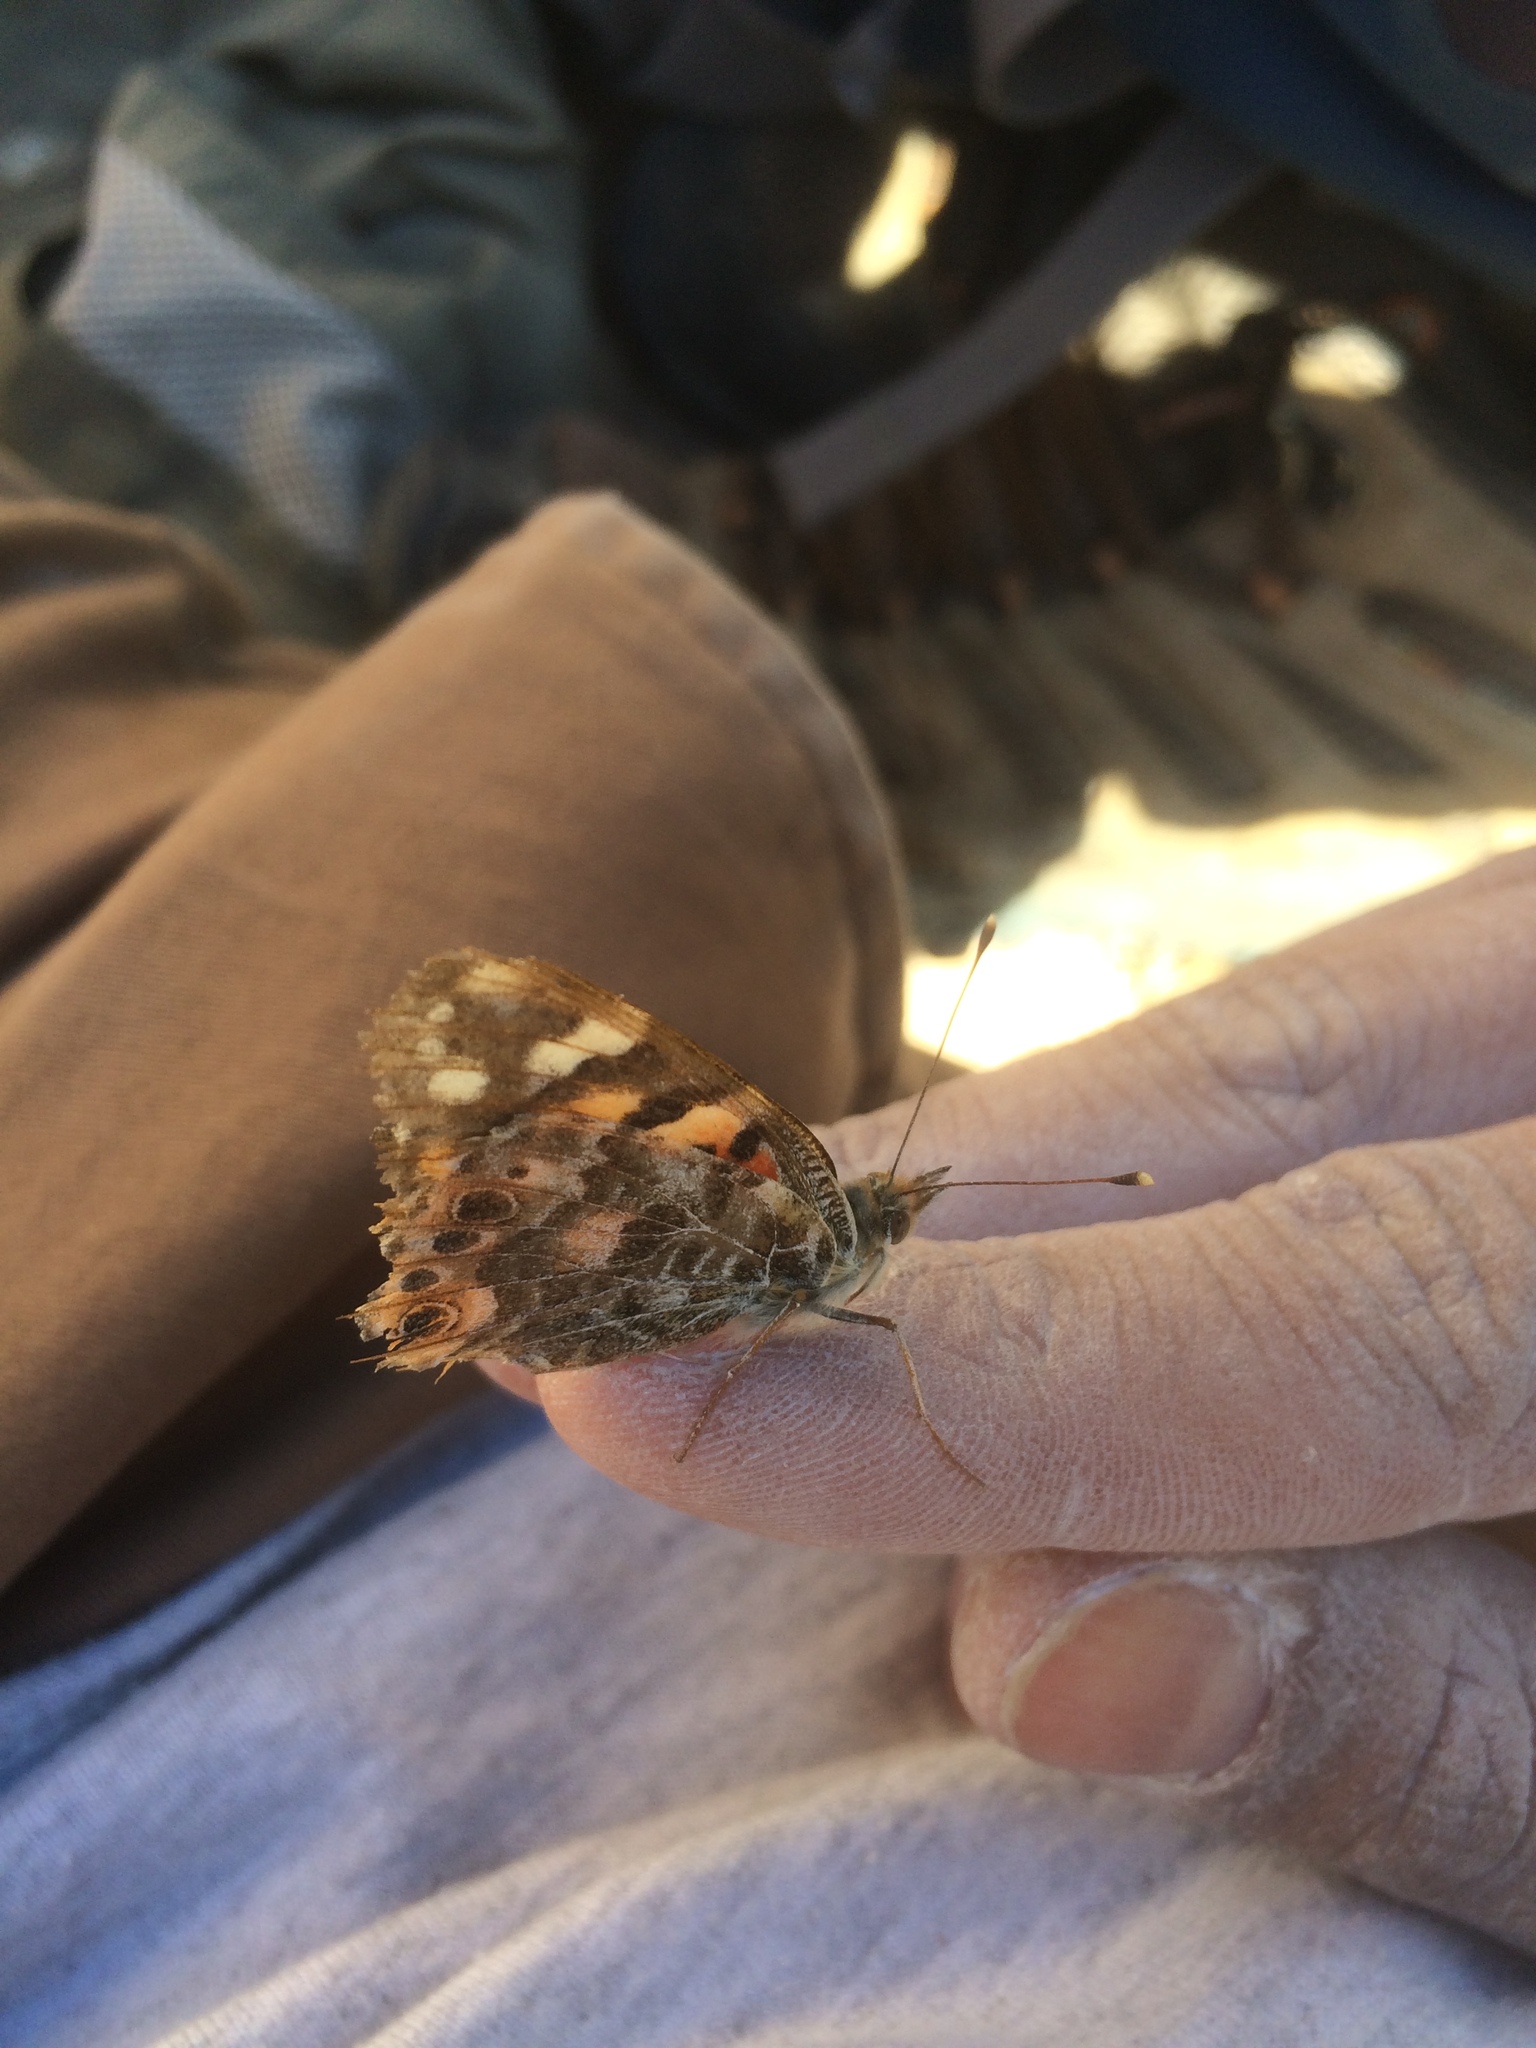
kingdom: Animalia
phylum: Arthropoda
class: Insecta
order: Lepidoptera
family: Nymphalidae
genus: Vanessa
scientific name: Vanessa cardui
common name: Painted lady
